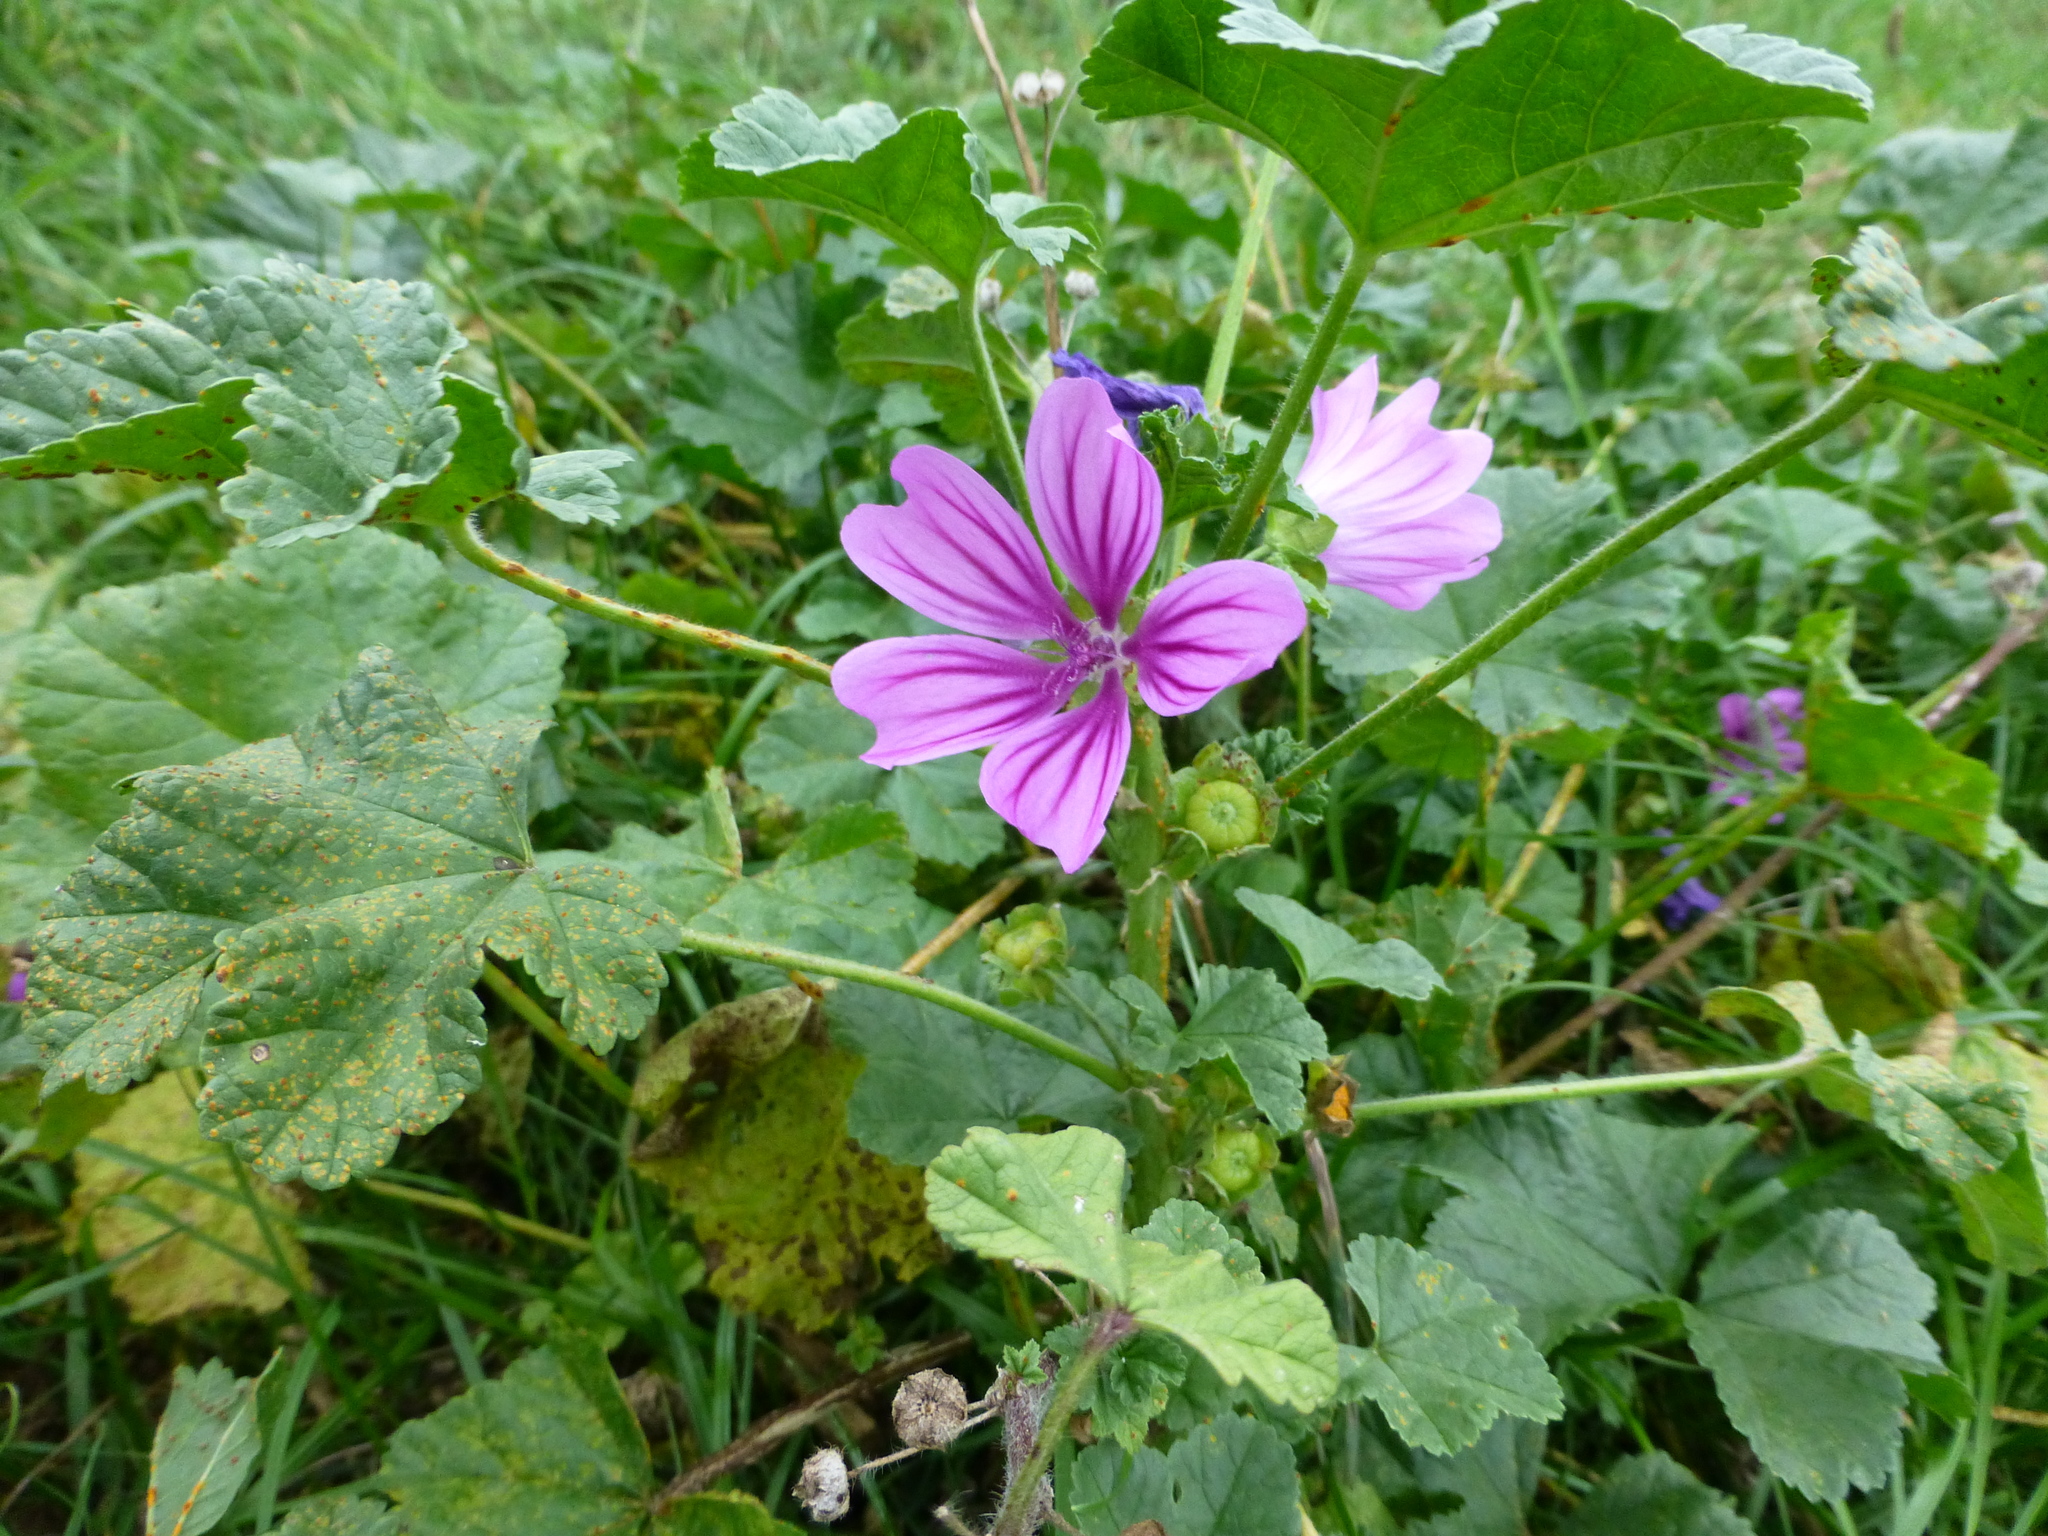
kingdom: Plantae
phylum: Tracheophyta
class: Magnoliopsida
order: Malvales
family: Malvaceae
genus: Malva
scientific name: Malva sylvestris
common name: Common mallow
